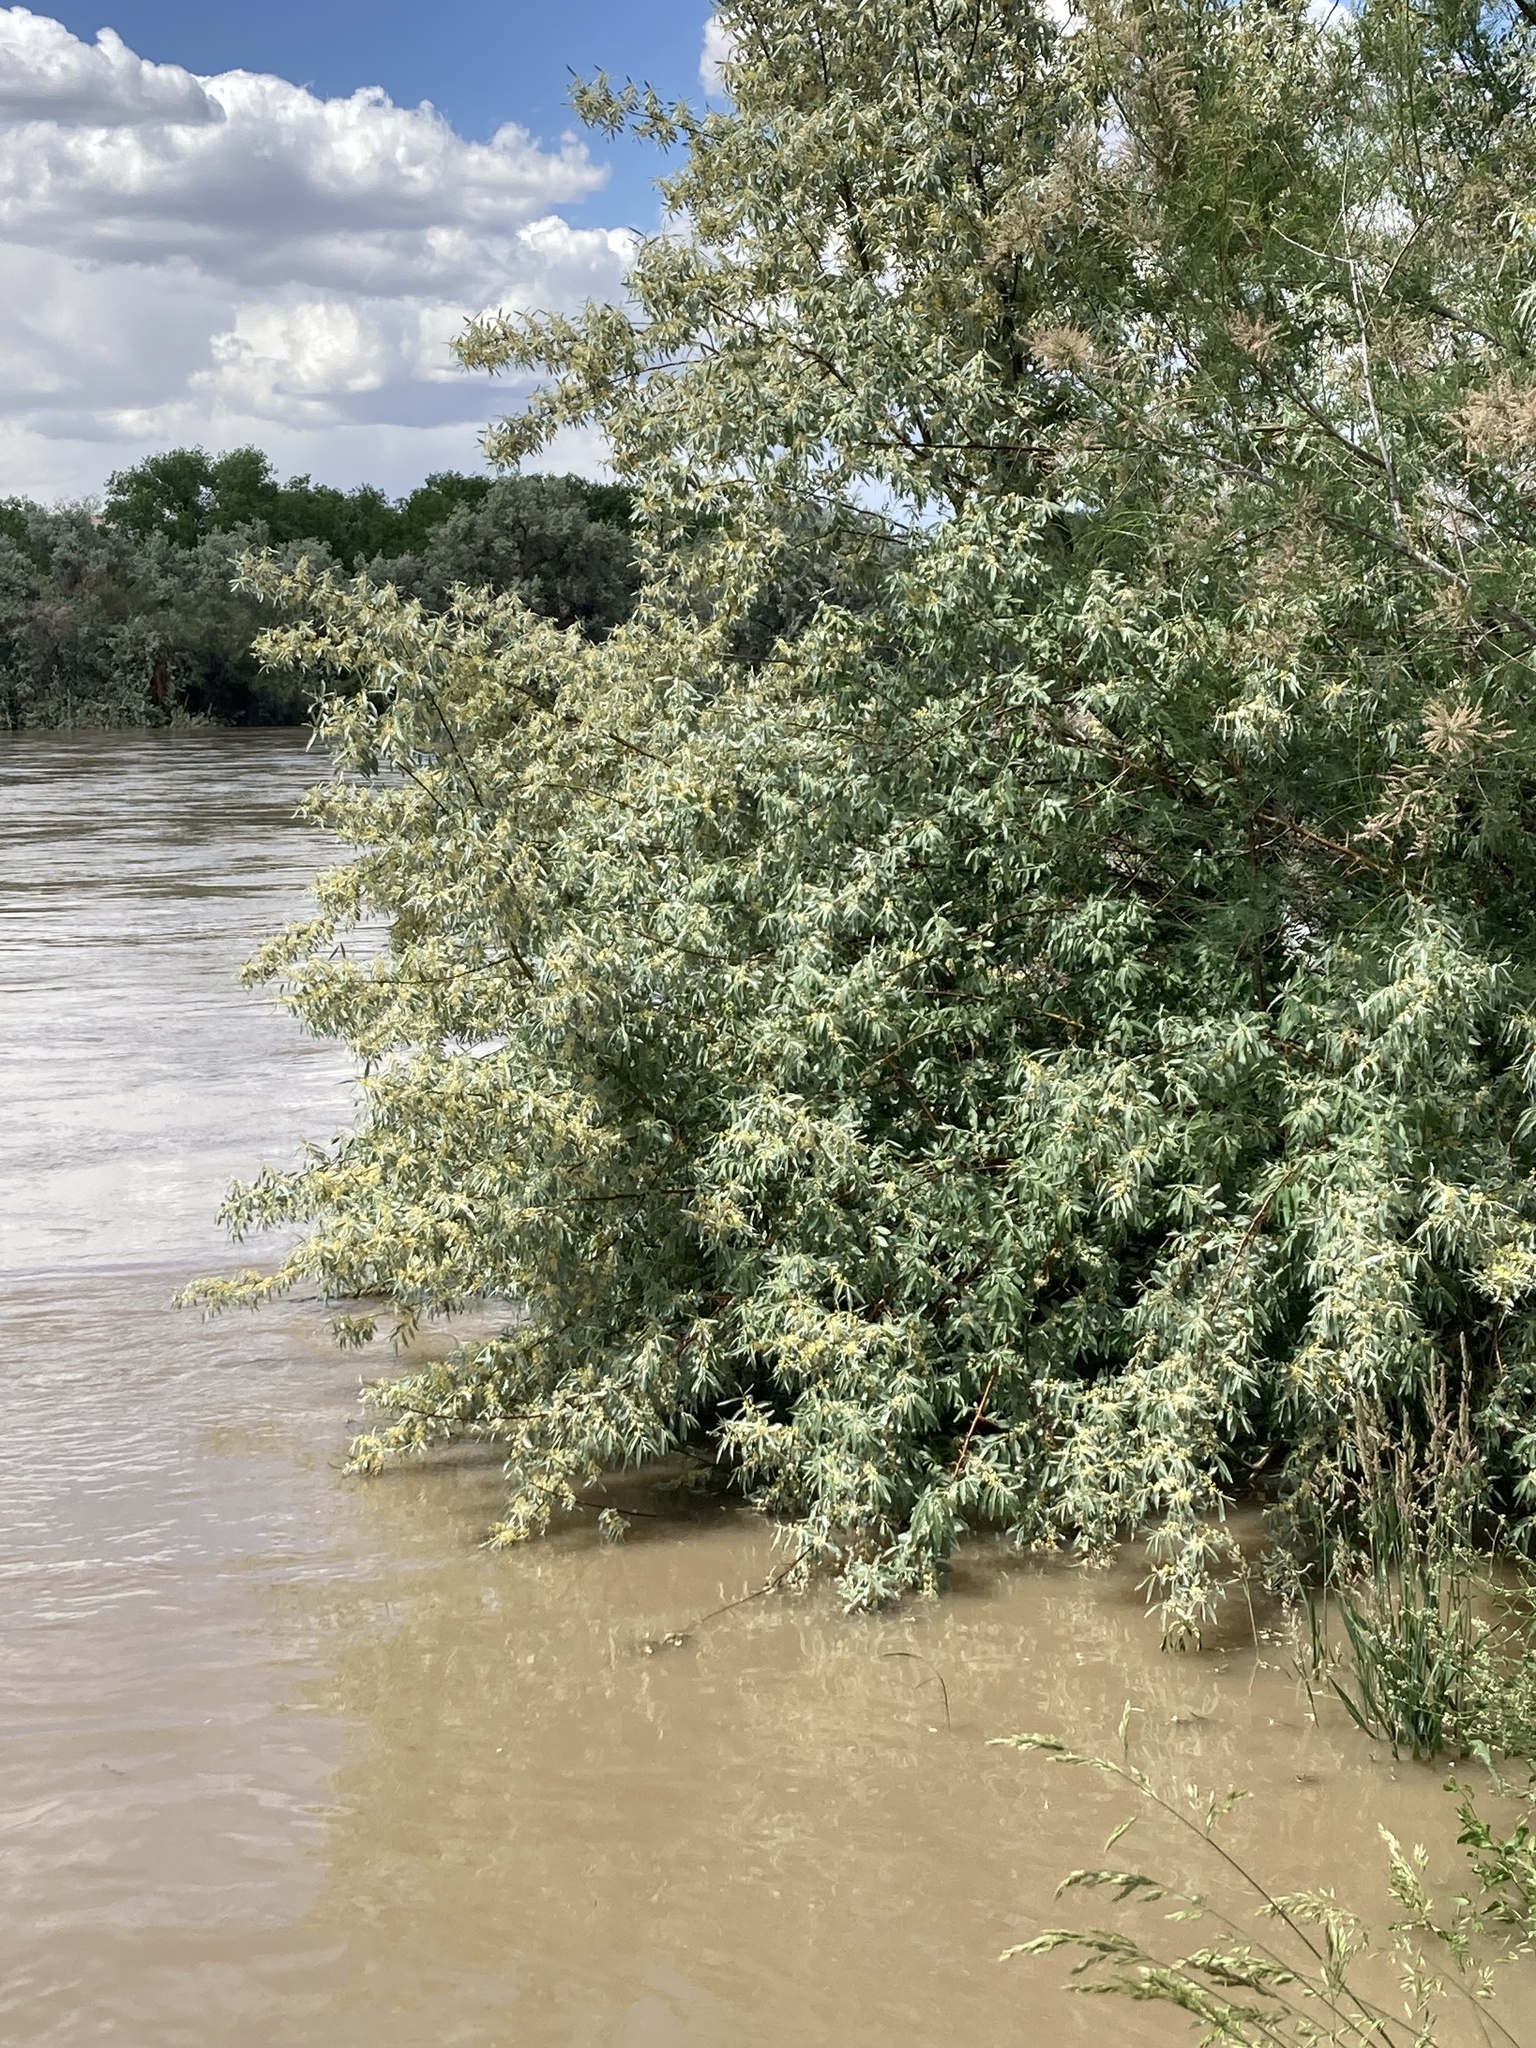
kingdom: Plantae
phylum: Tracheophyta
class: Magnoliopsida
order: Rosales
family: Elaeagnaceae
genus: Elaeagnus
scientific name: Elaeagnus angustifolia
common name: Russian olive
